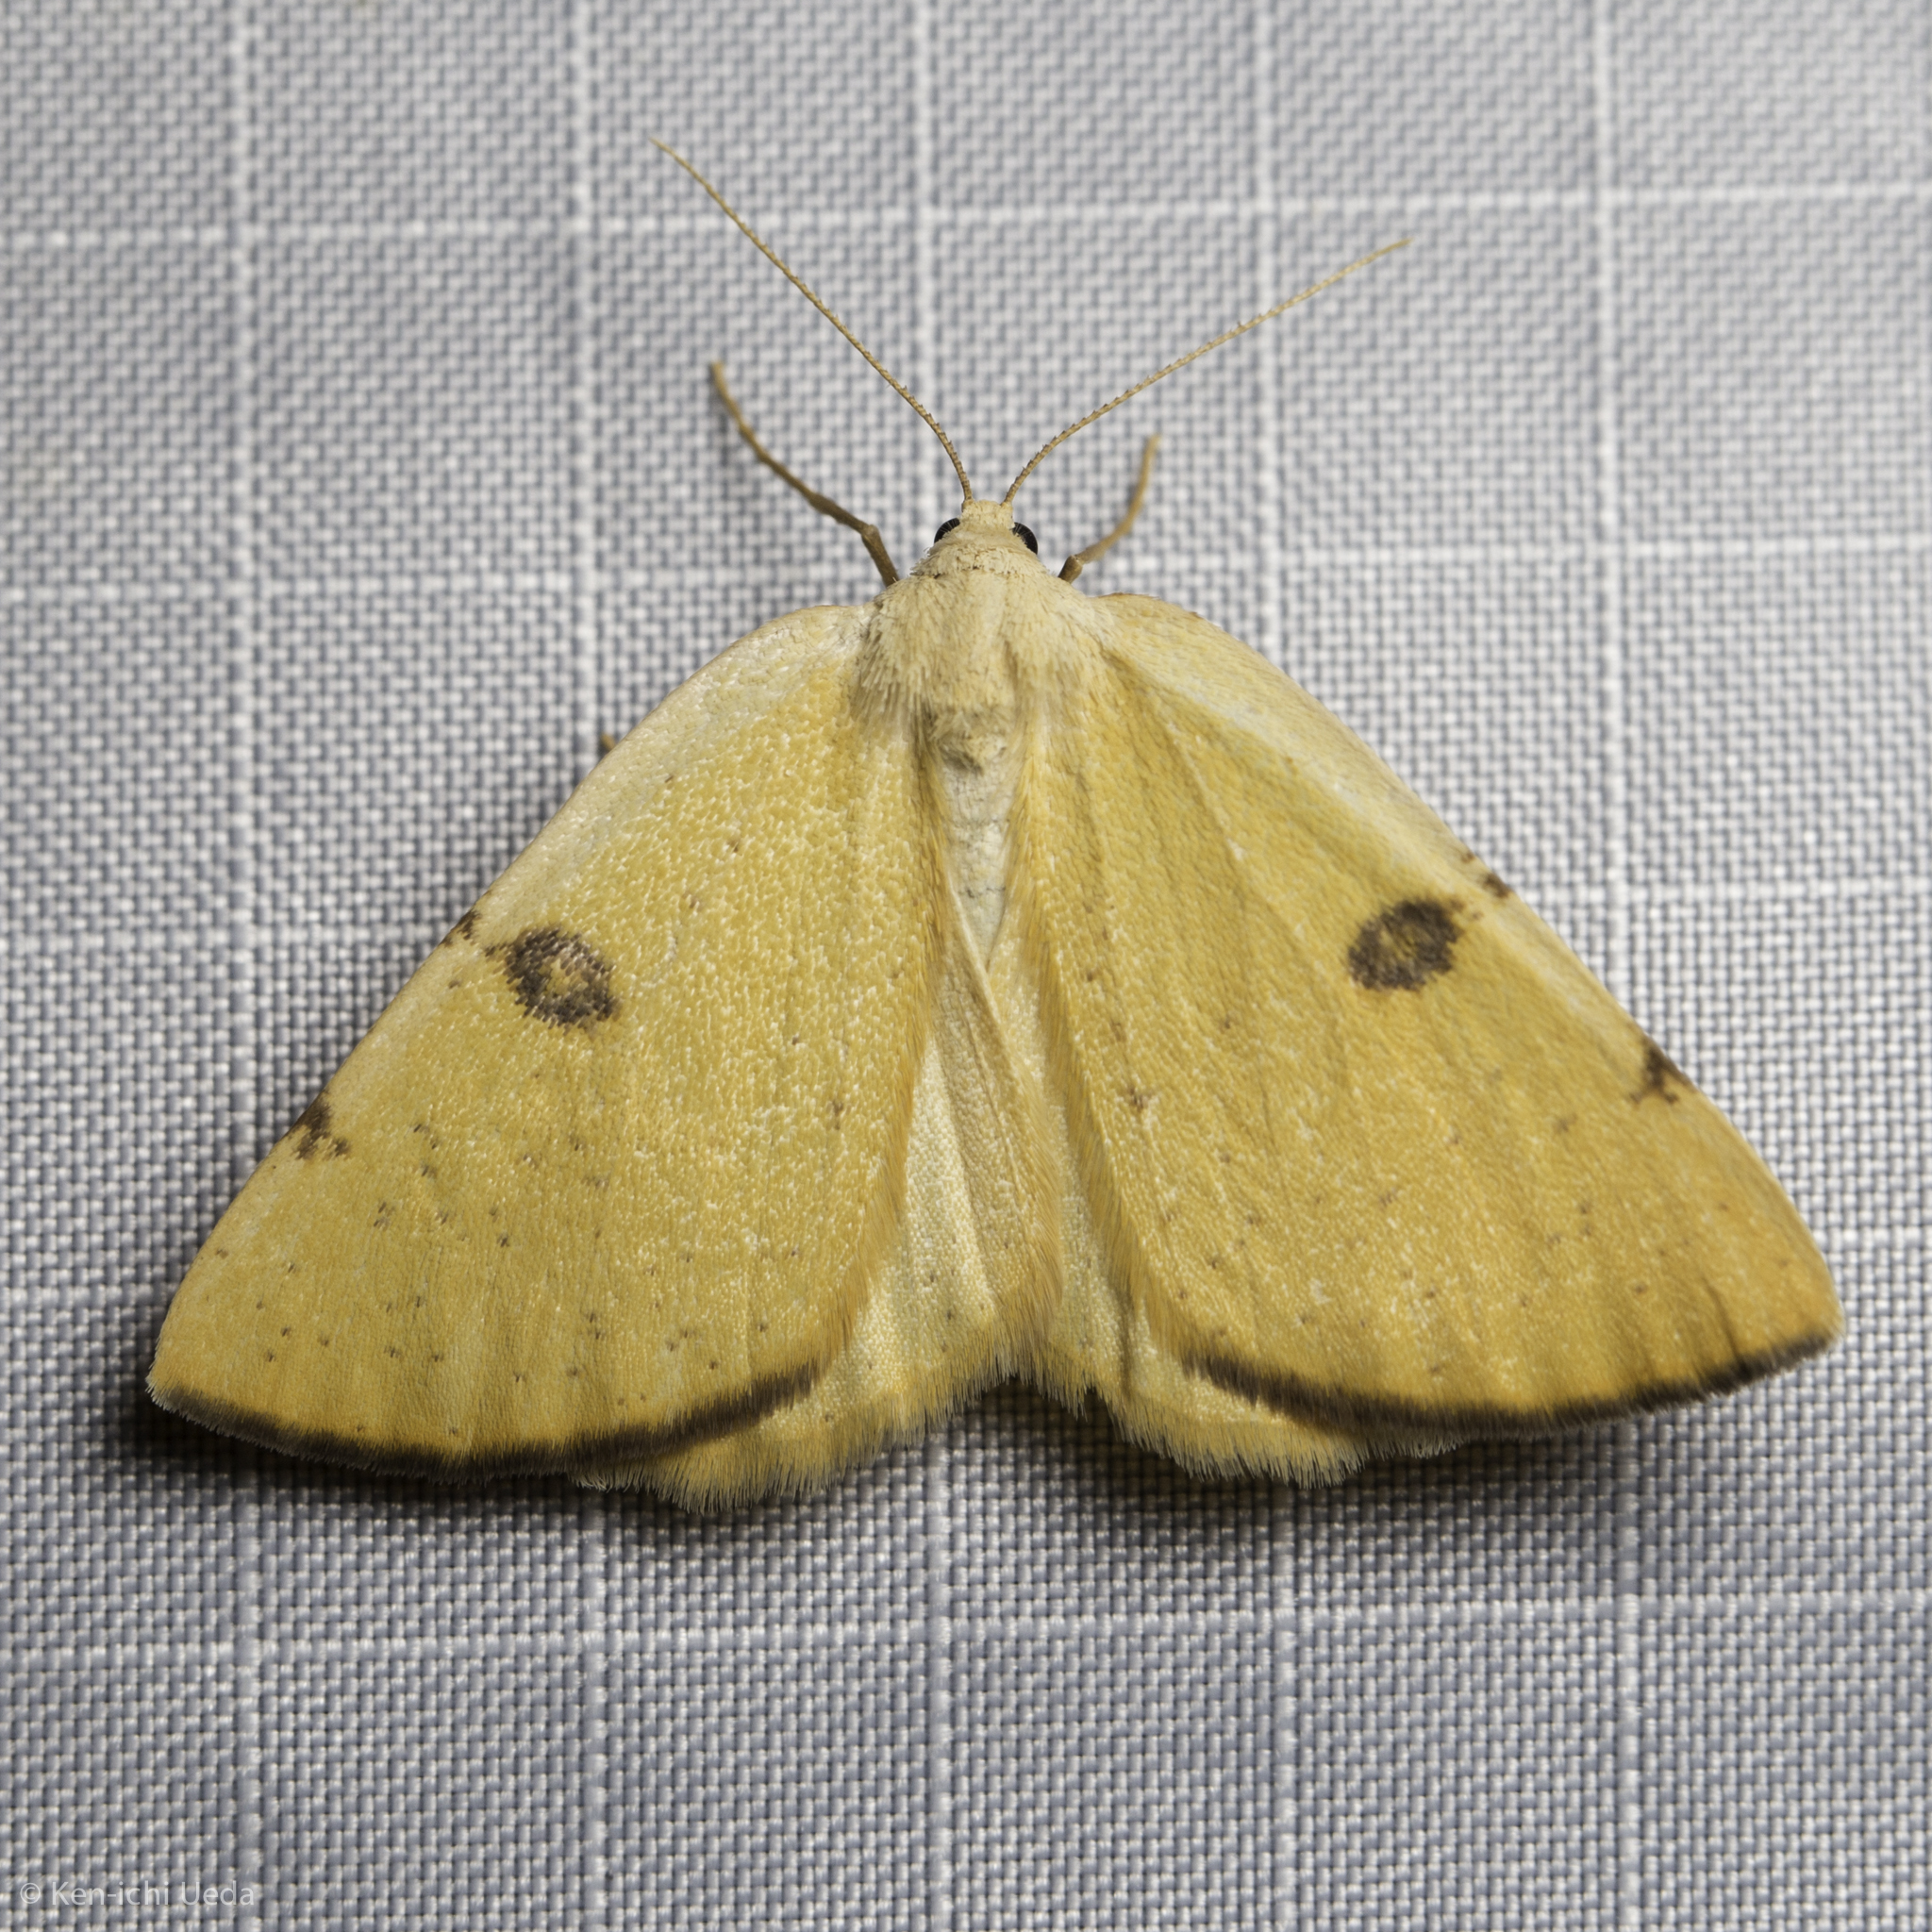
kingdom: Animalia
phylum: Arthropoda
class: Insecta
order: Lepidoptera
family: Geometridae
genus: Hesperumia
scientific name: Hesperumia sulphuraria
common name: Sulphur moth
